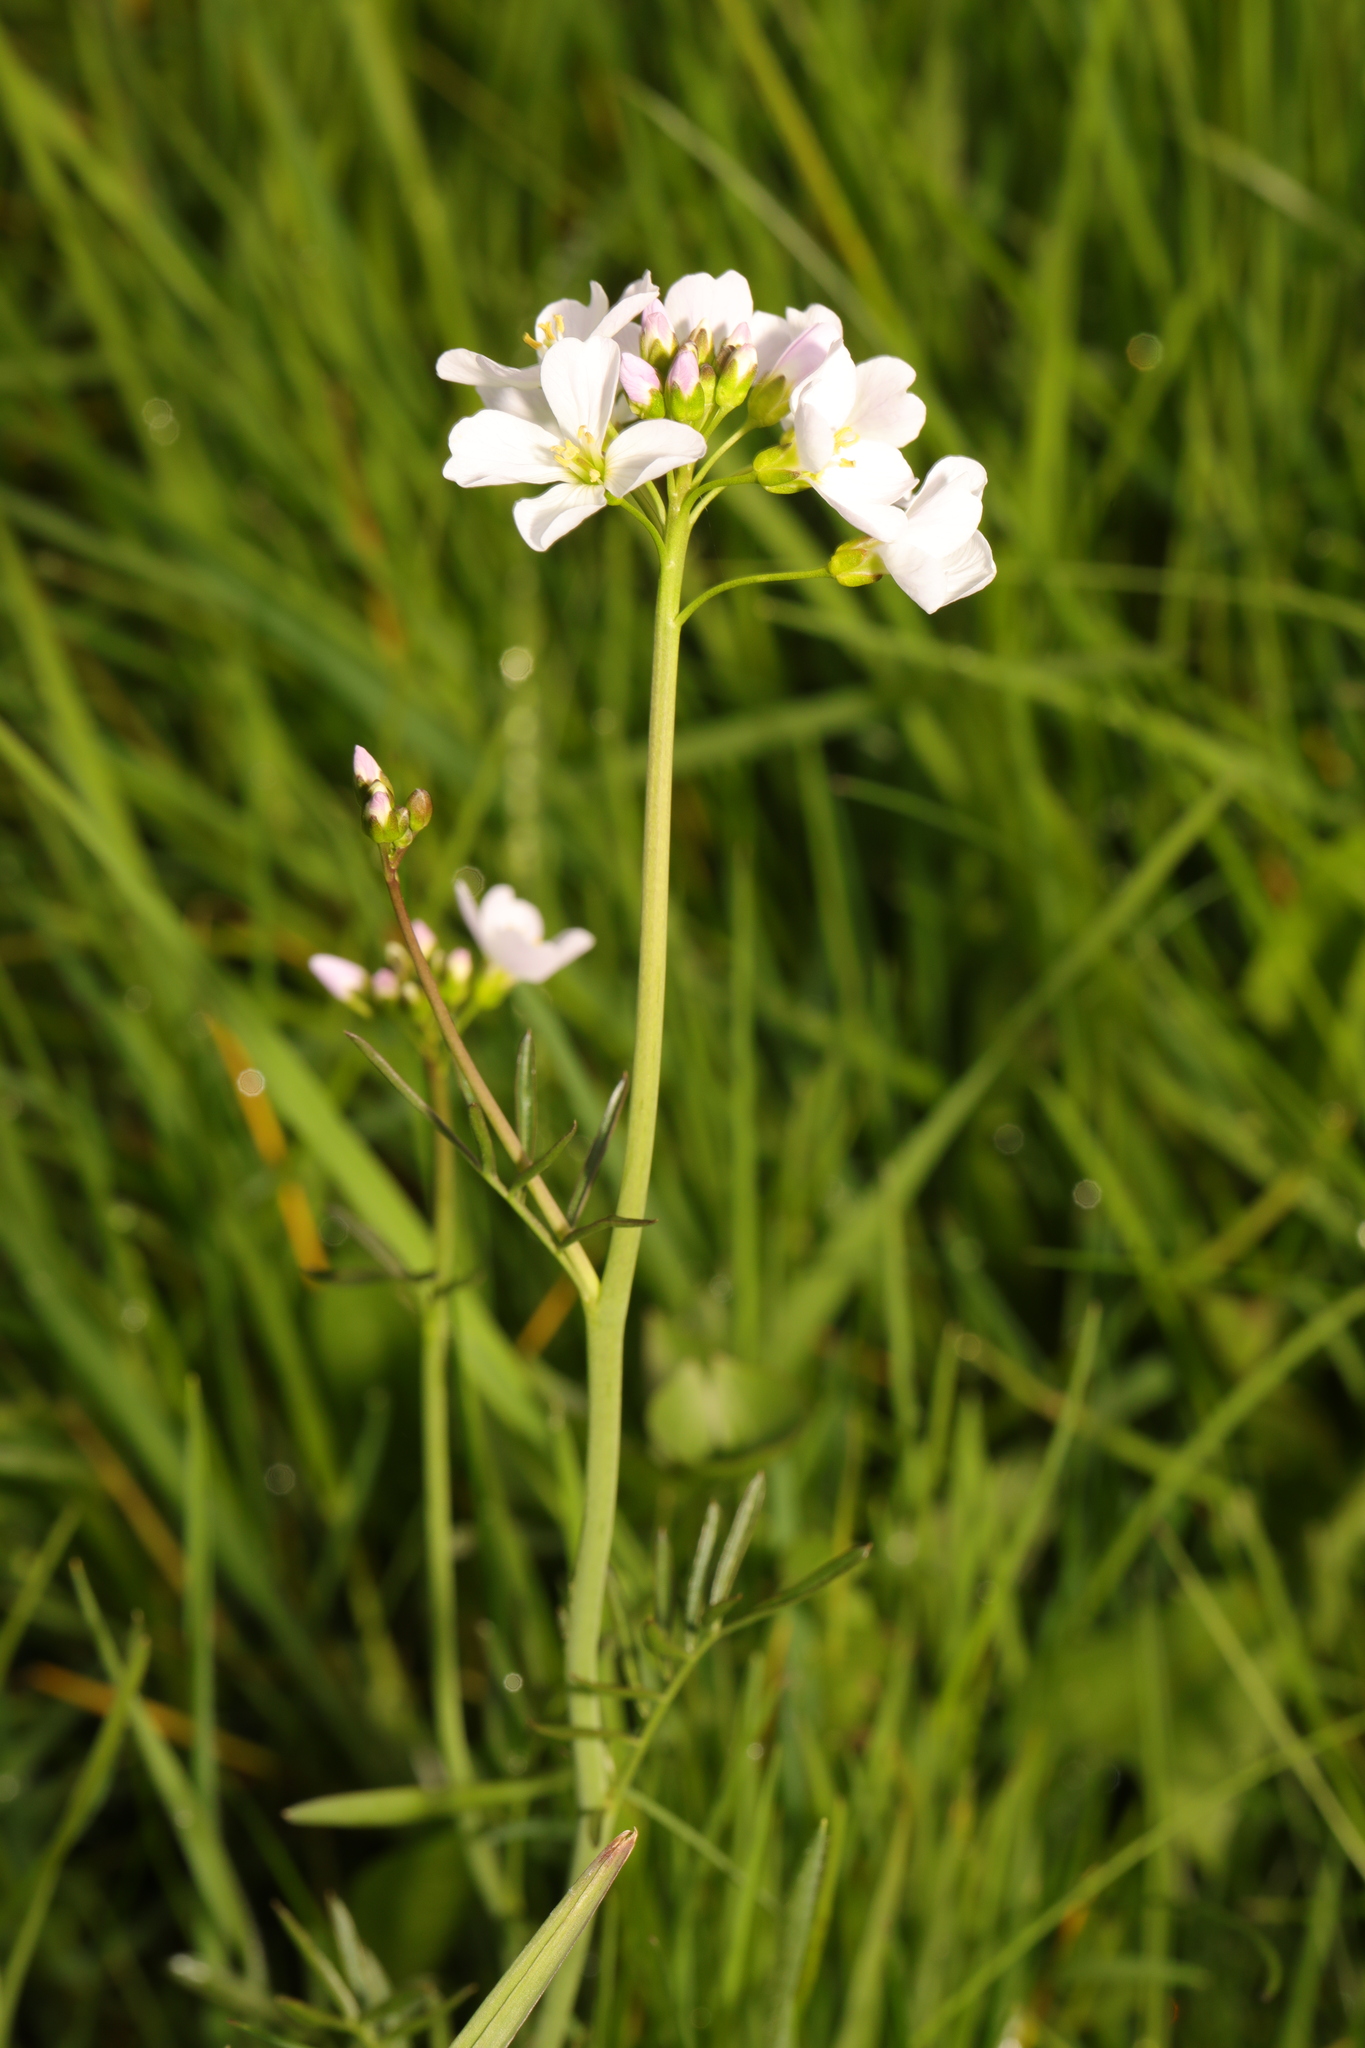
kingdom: Plantae
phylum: Tracheophyta
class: Magnoliopsida
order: Brassicales
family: Brassicaceae
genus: Cardamine
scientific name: Cardamine pratensis
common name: Cuckoo flower
